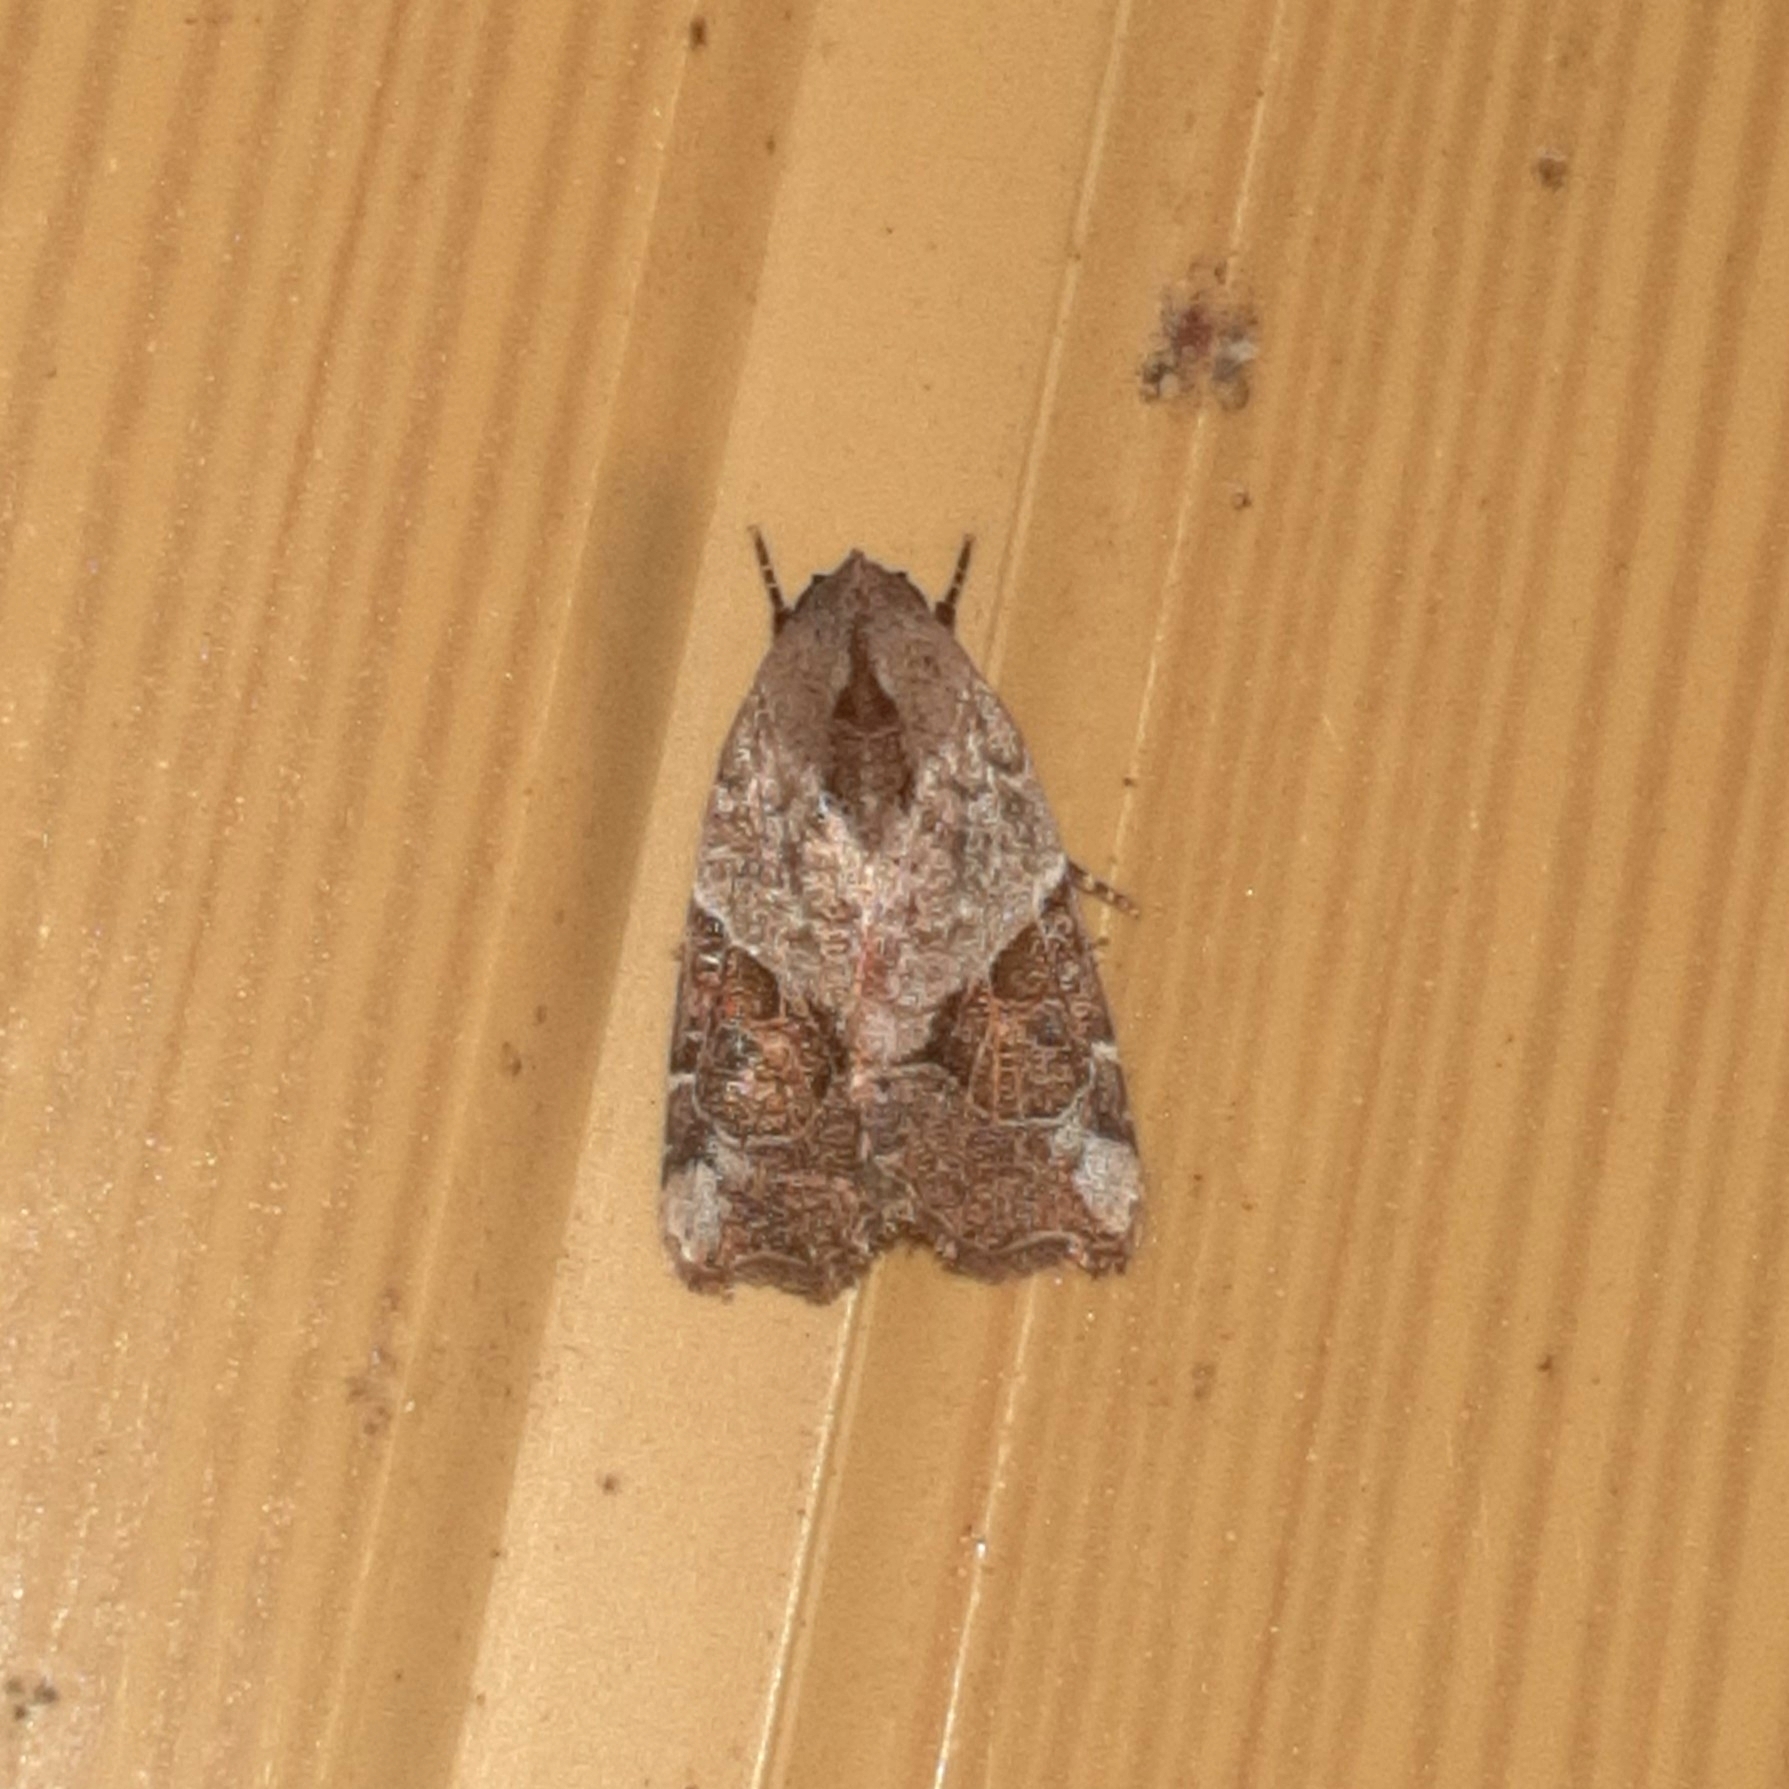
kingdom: Animalia
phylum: Arthropoda
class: Insecta
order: Lepidoptera
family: Noctuidae
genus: Gonodes
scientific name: Gonodes liquida
